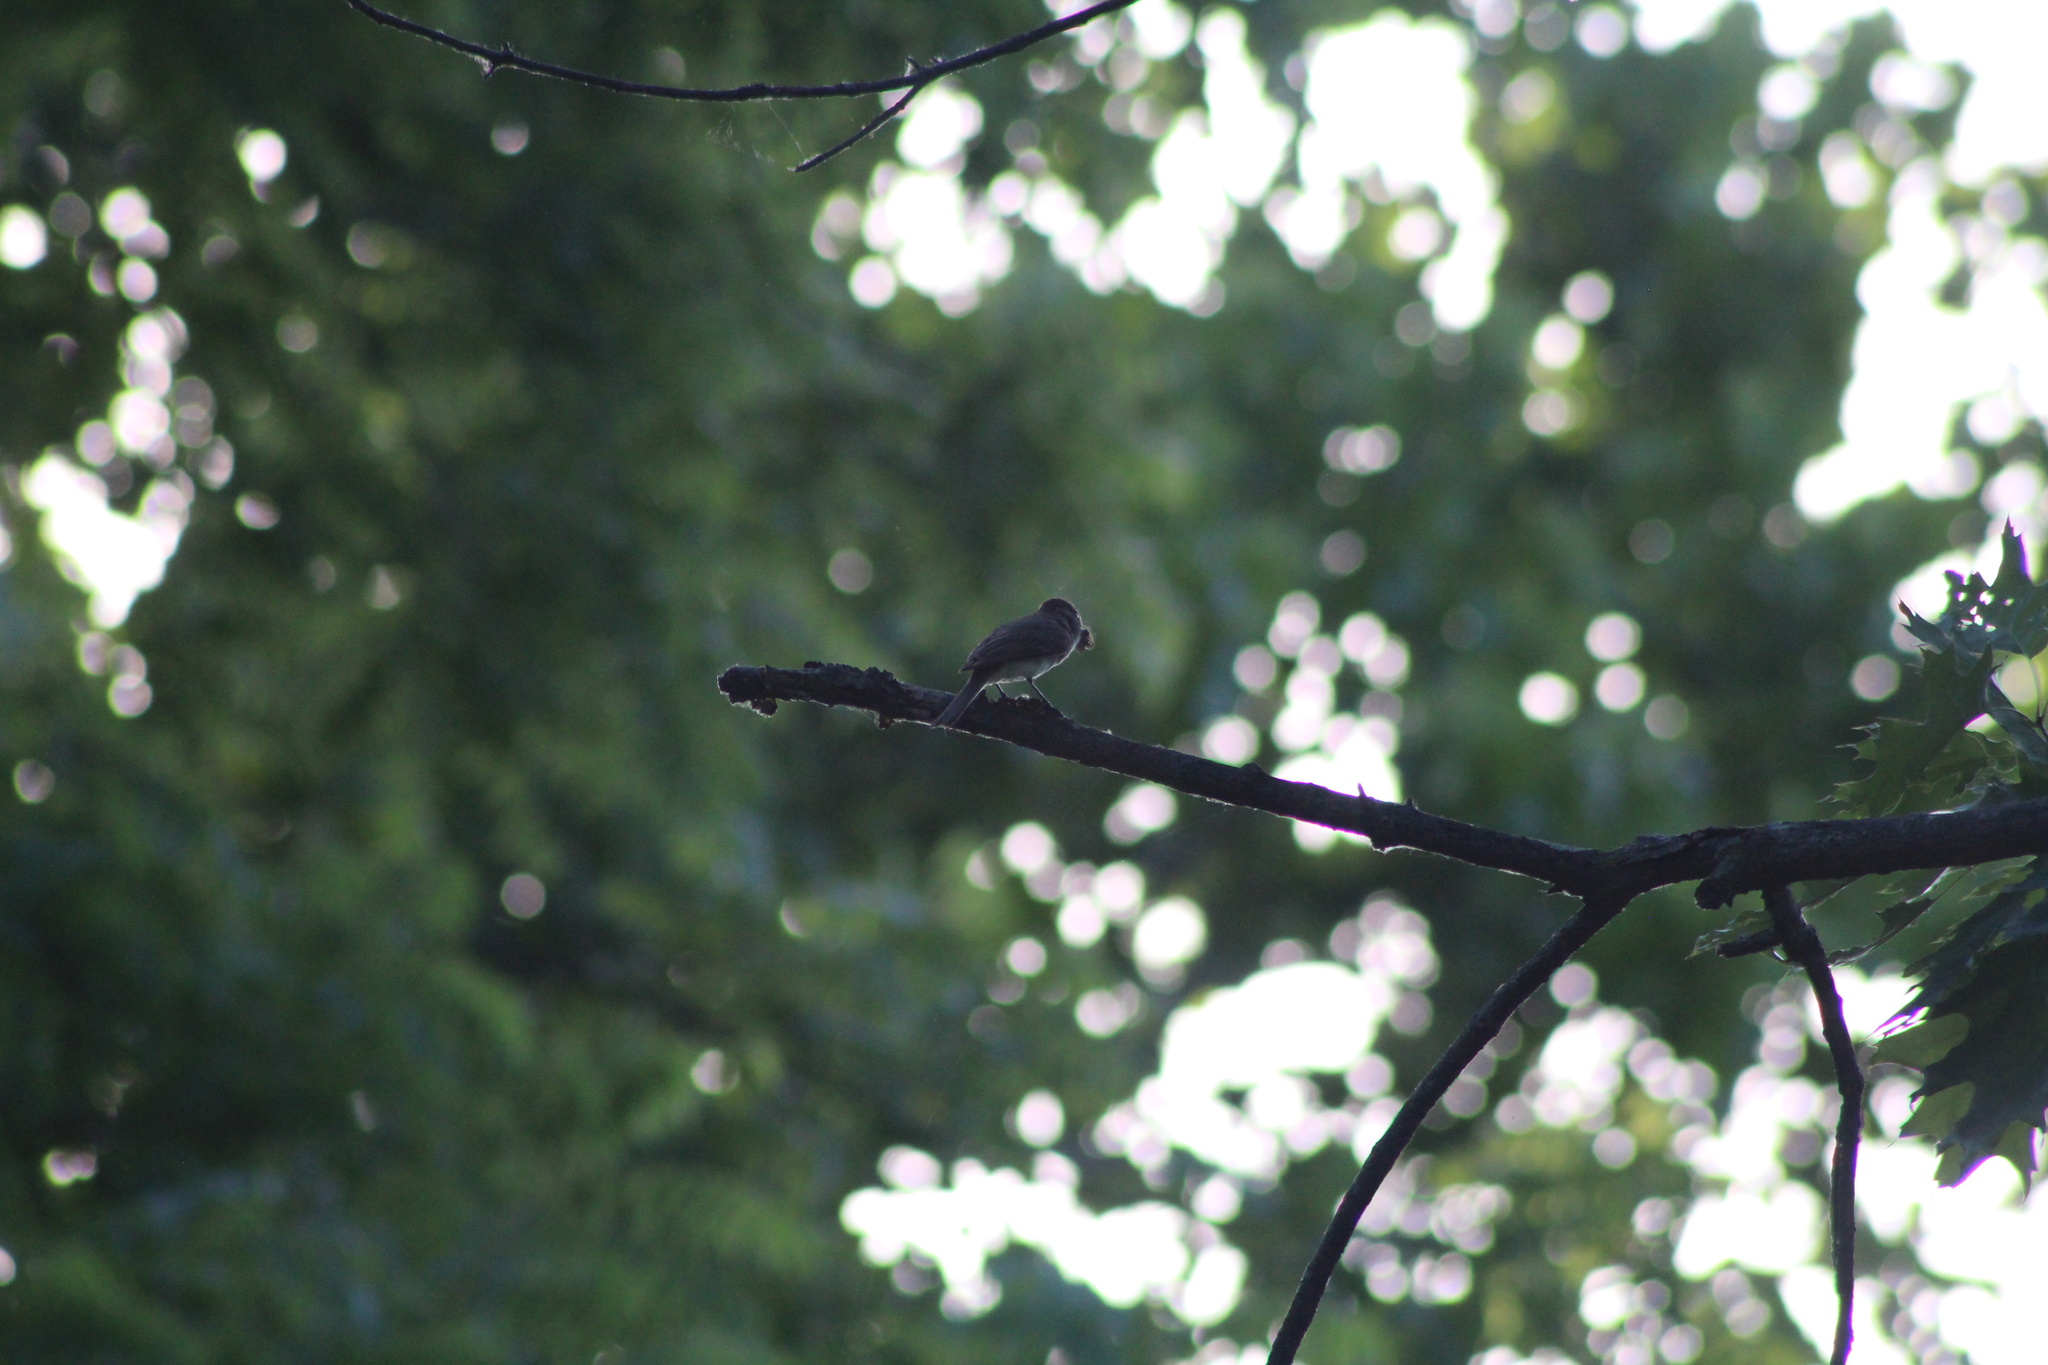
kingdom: Animalia
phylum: Chordata
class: Aves
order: Passeriformes
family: Tyrannidae
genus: Sayornis
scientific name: Sayornis phoebe
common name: Eastern phoebe
